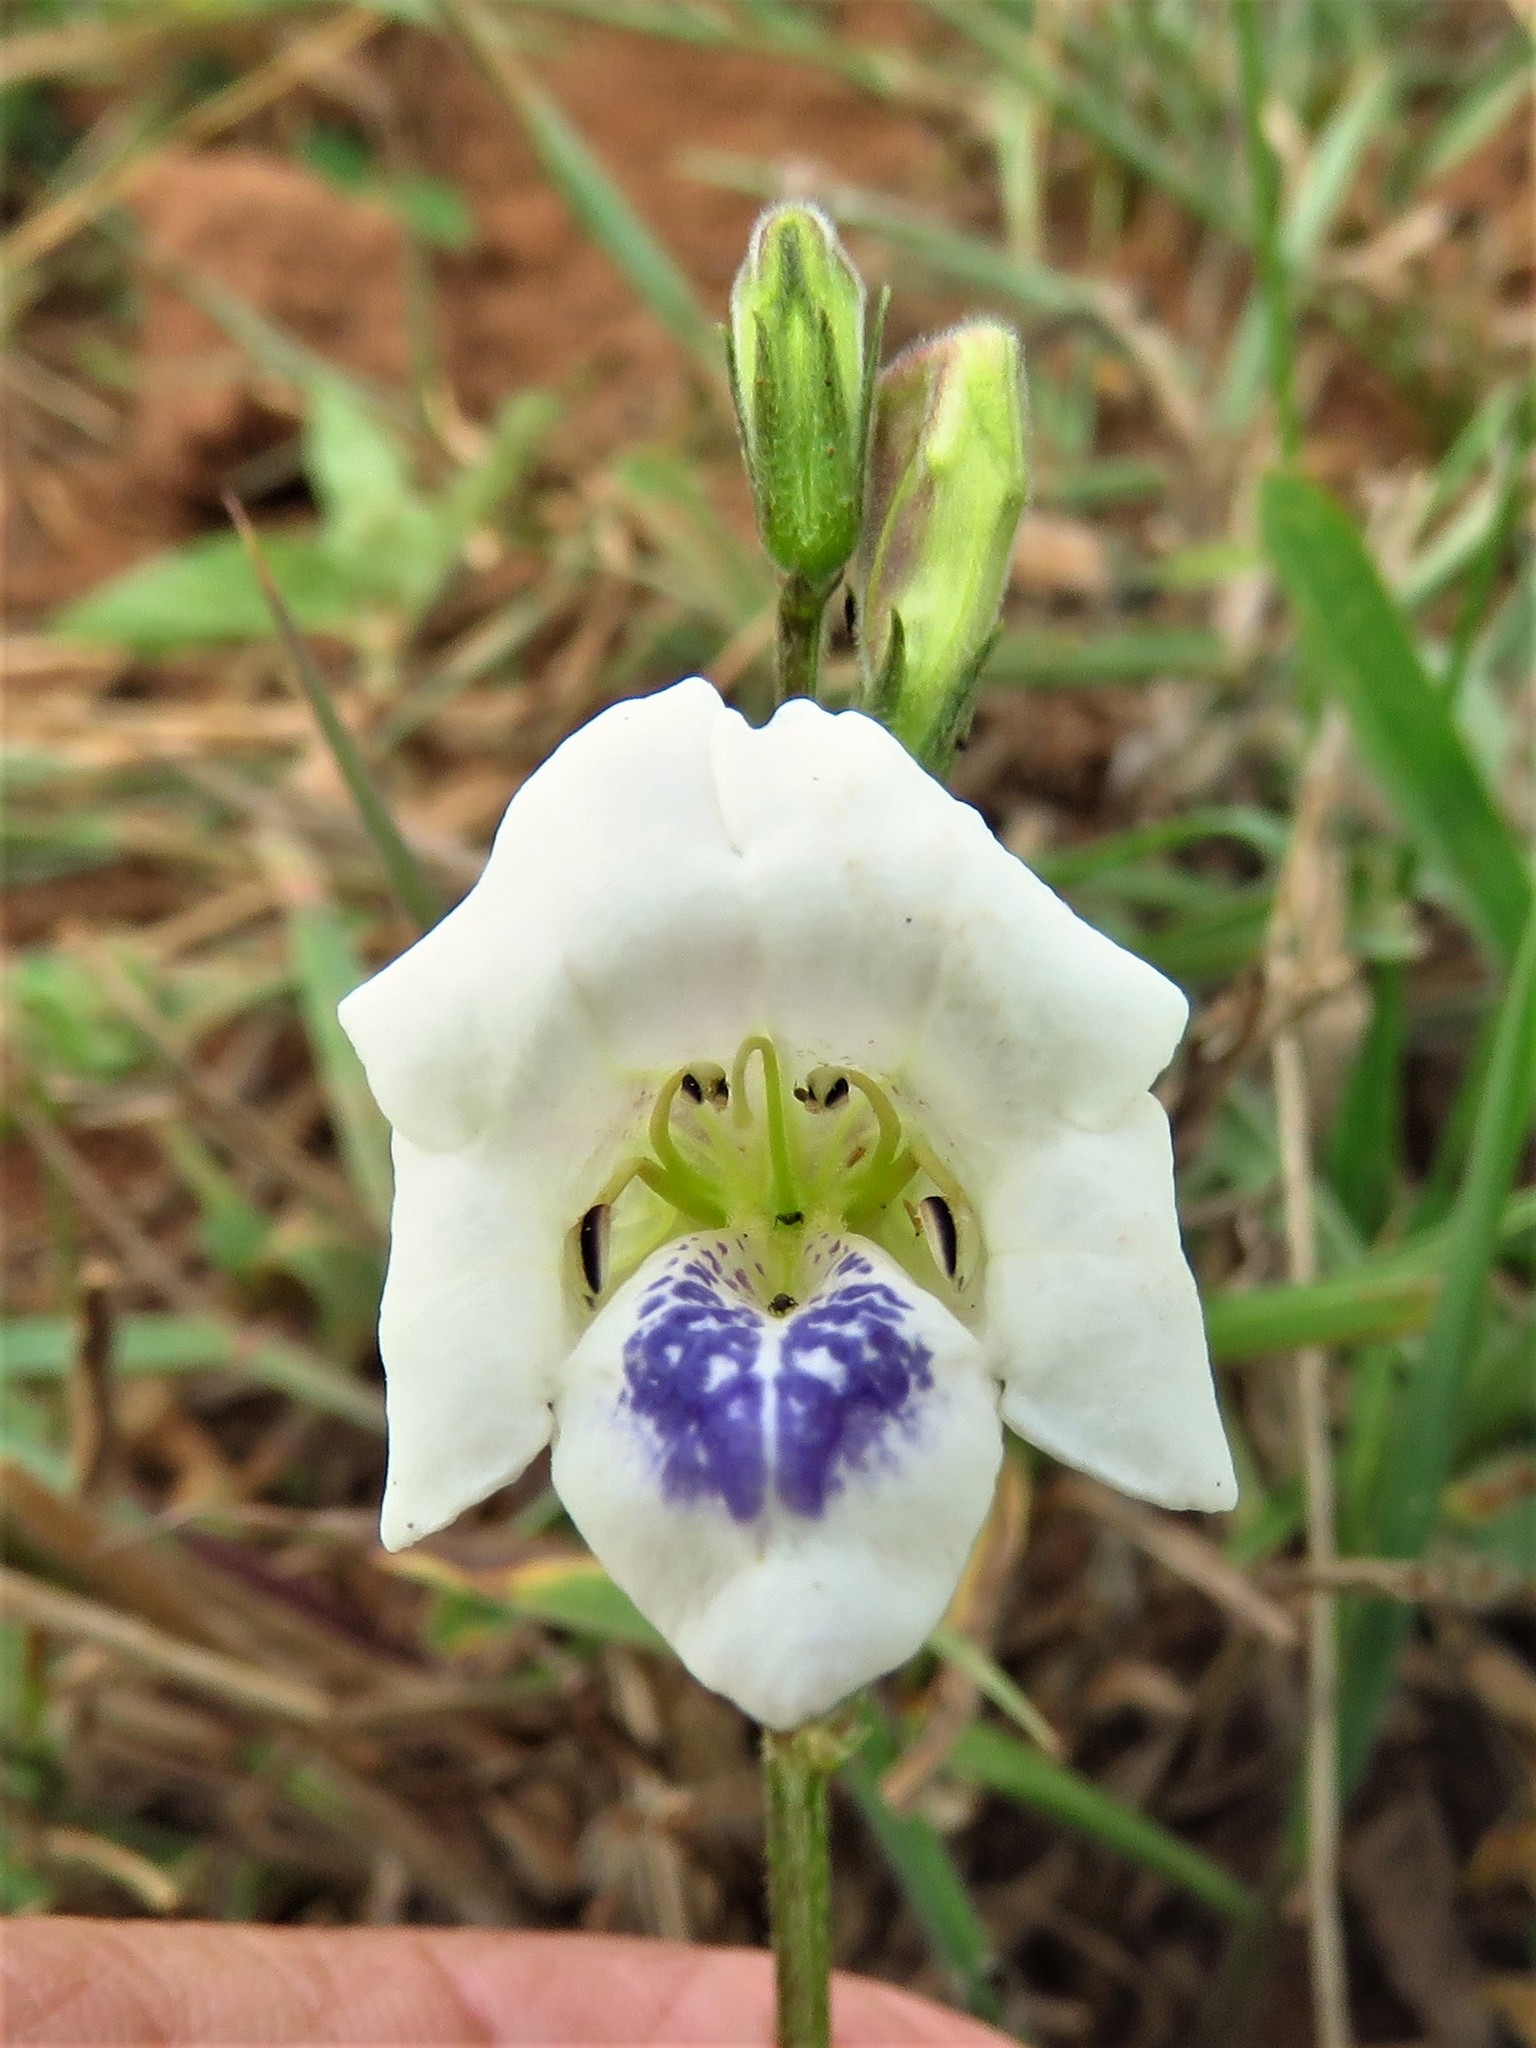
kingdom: Plantae
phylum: Tracheophyta
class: Magnoliopsida
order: Lamiales
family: Acanthaceae
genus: Asystasia
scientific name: Asystasia intrusa
